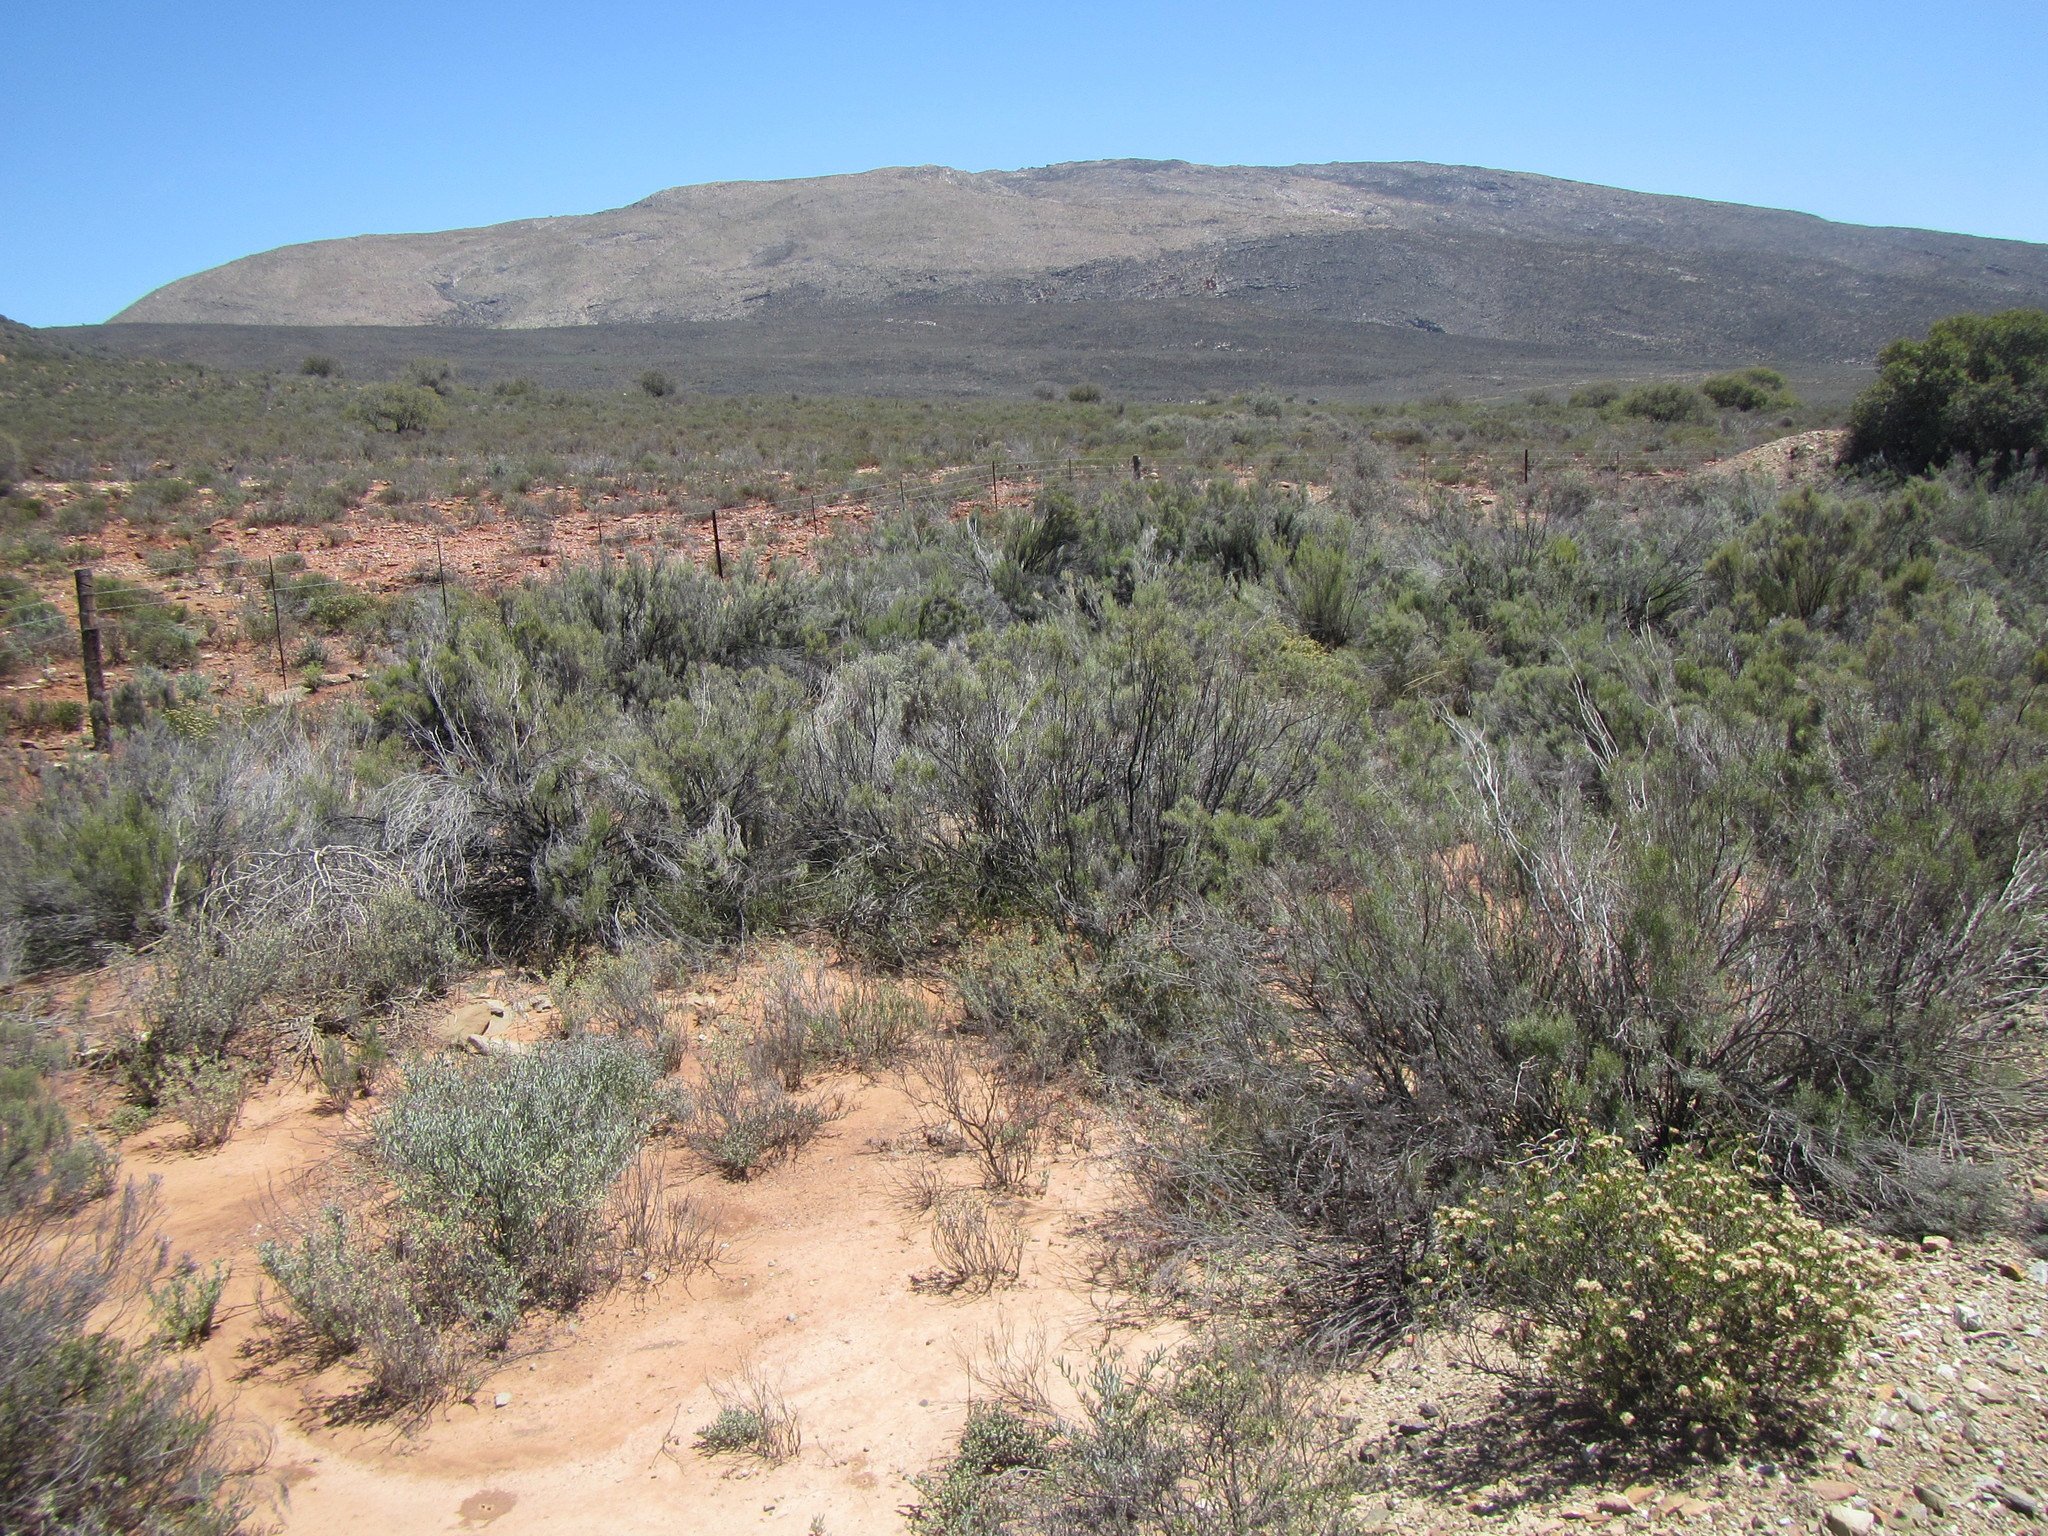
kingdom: Plantae
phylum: Tracheophyta
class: Magnoliopsida
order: Asterales
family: Asteraceae
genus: Dicerothamnus
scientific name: Dicerothamnus rhinocerotis
